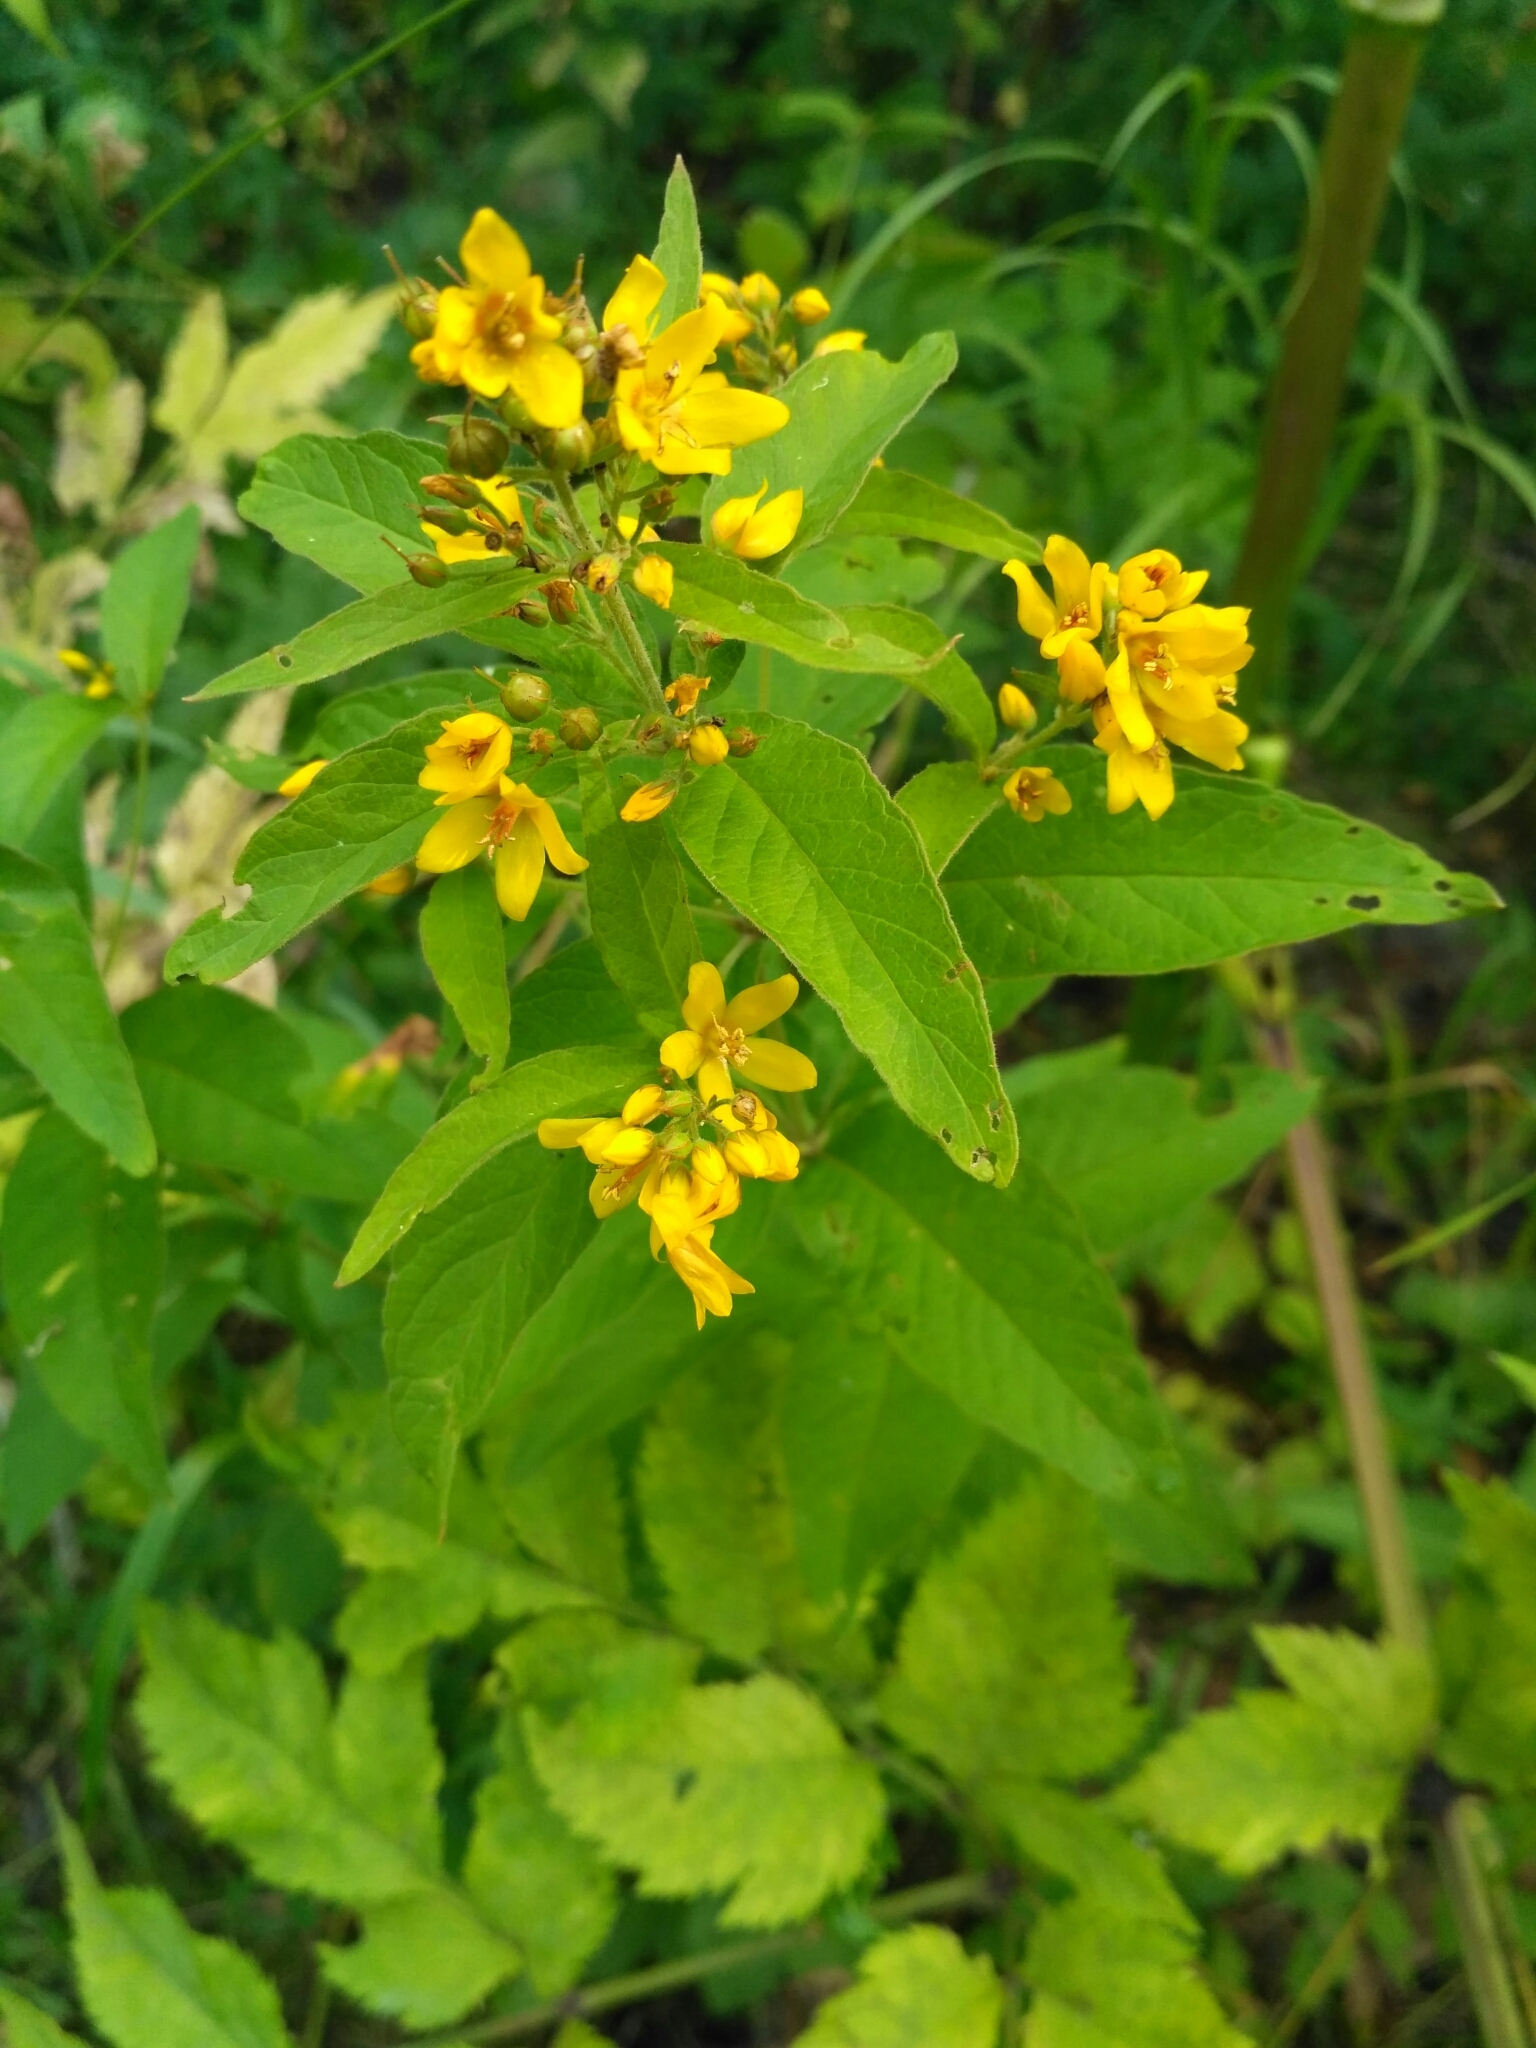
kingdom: Plantae
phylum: Tracheophyta
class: Magnoliopsida
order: Ericales
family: Primulaceae
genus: Lysimachia
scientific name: Lysimachia vulgaris
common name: Yellow loosestrife
